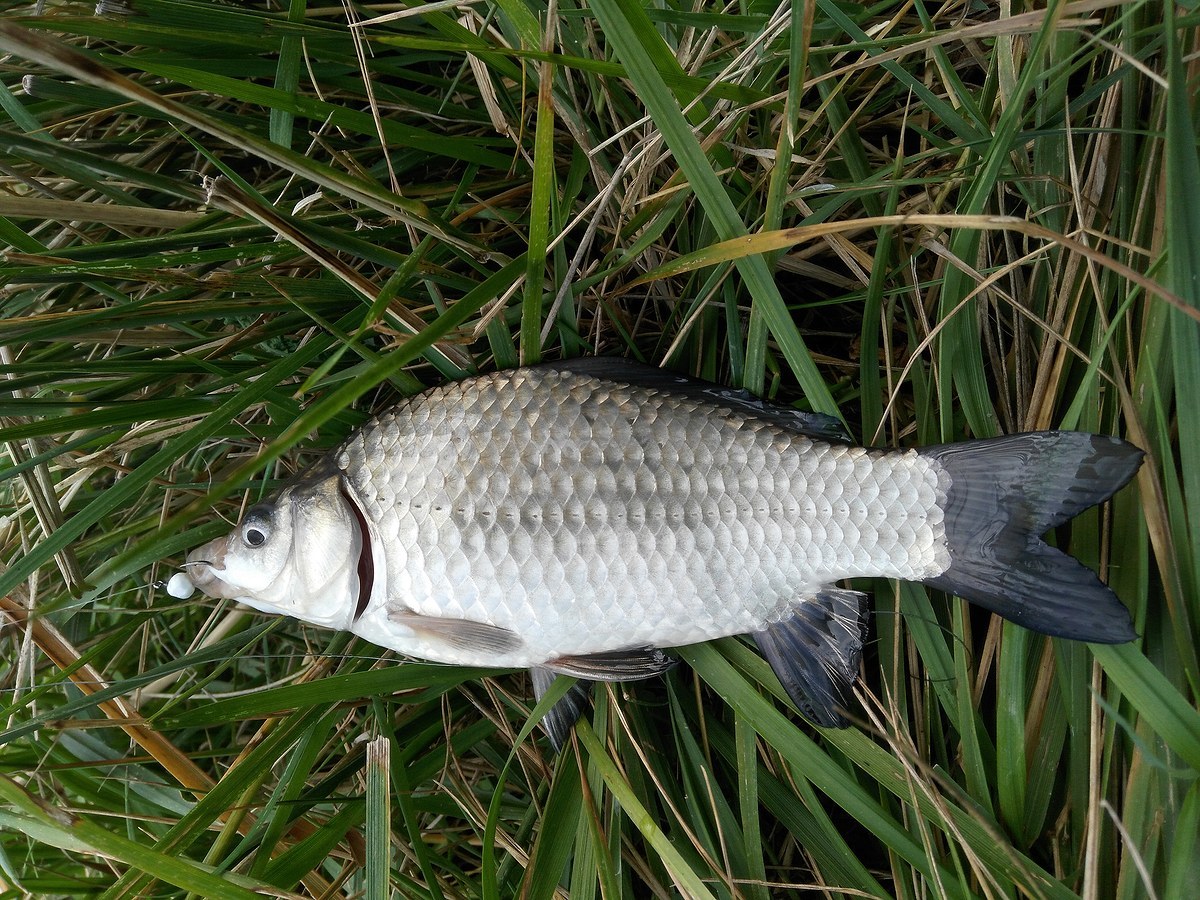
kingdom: Animalia
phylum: Chordata
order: Cypriniformes
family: Cyprinidae
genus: Carassius
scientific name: Carassius gibelio
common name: Prussian carp
